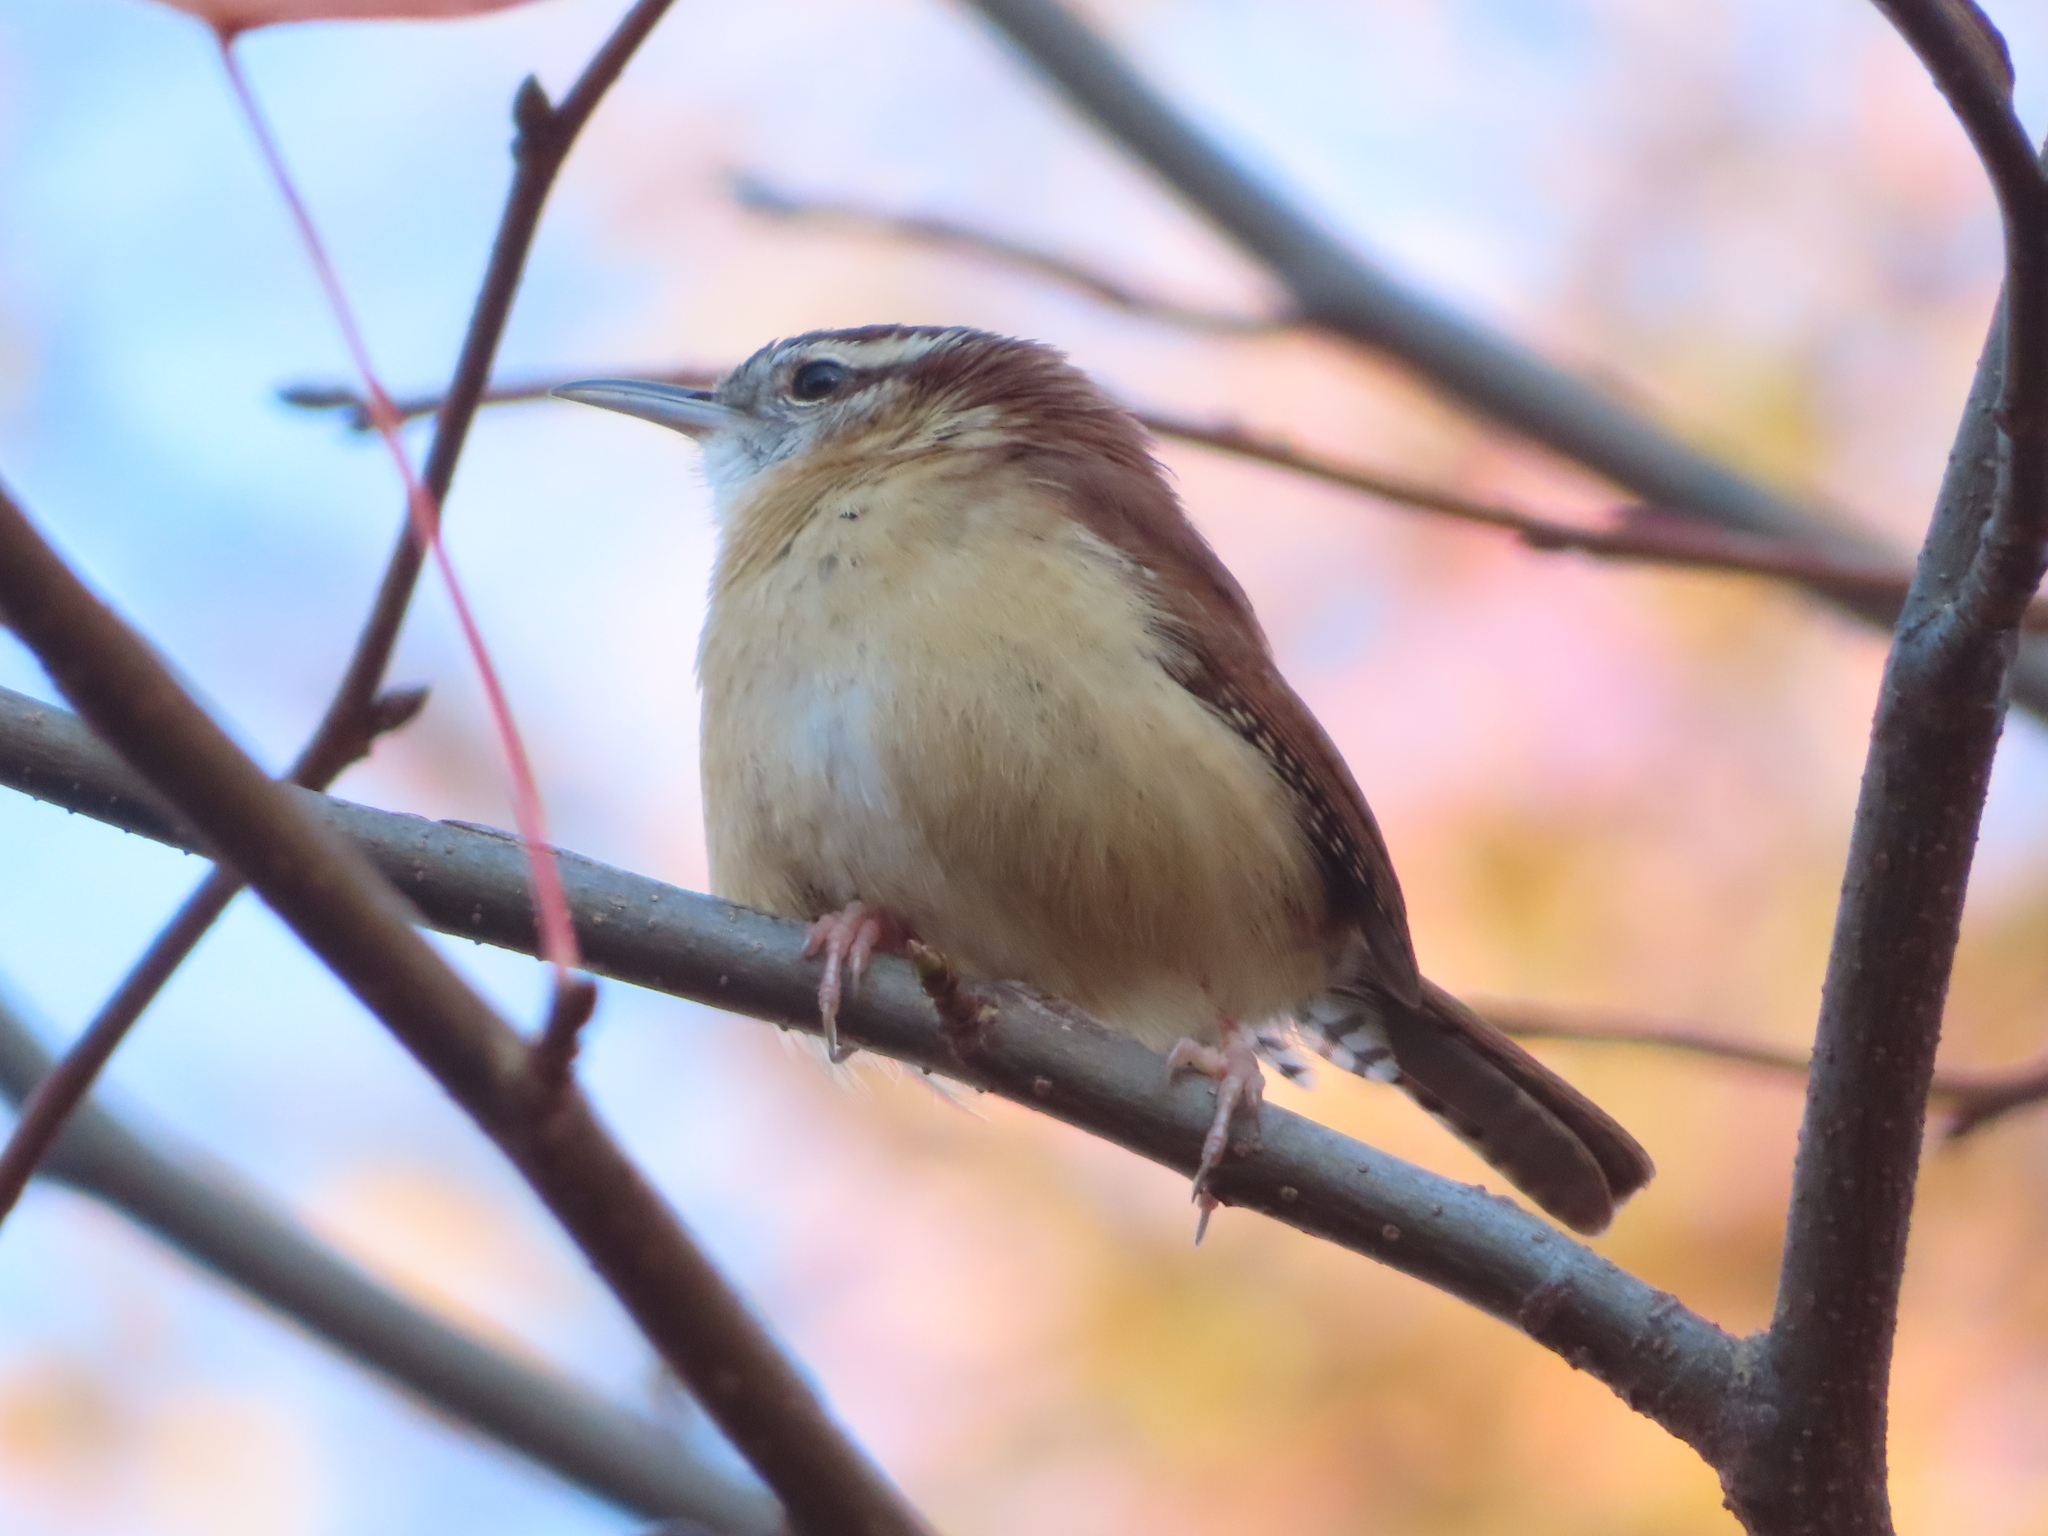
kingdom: Animalia
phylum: Chordata
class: Aves
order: Passeriformes
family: Troglodytidae
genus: Thryothorus
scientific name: Thryothorus ludovicianus
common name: Carolina wren
